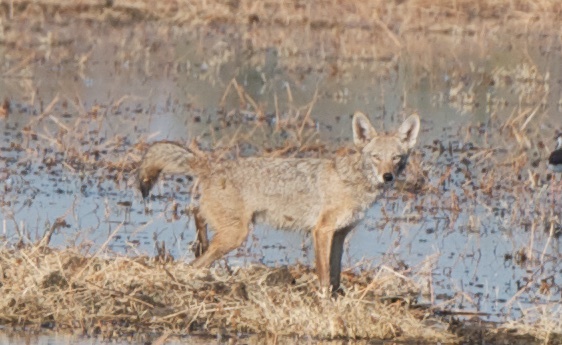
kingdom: Animalia
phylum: Chordata
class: Mammalia
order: Carnivora
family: Canidae
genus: Canis
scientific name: Canis latrans
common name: Coyote
